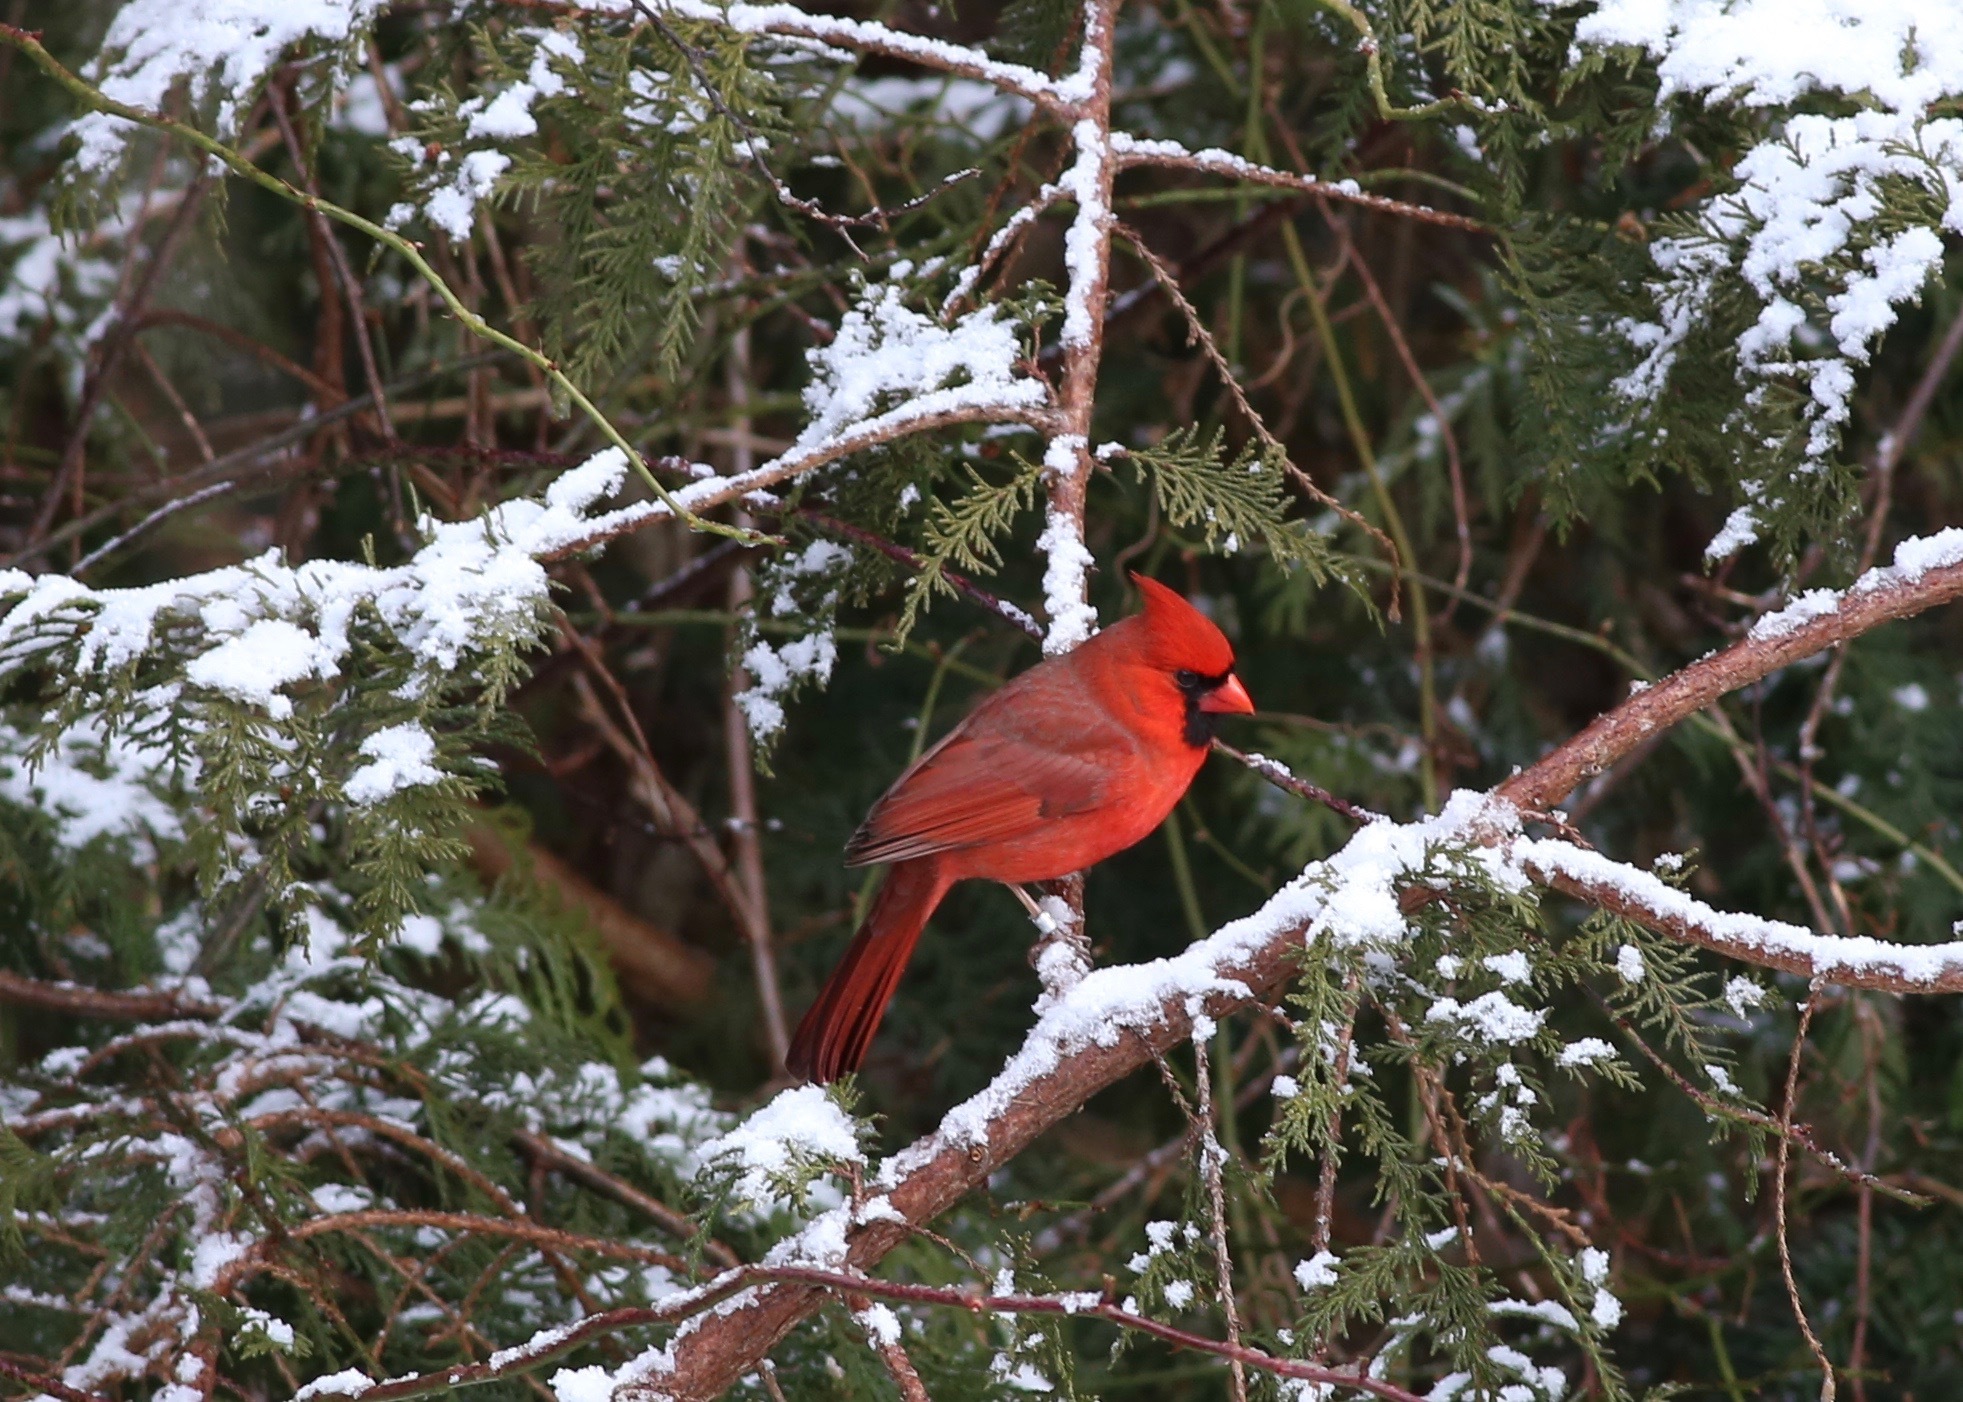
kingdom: Animalia
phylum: Chordata
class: Aves
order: Passeriformes
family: Cardinalidae
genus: Cardinalis
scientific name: Cardinalis cardinalis
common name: Northern cardinal
